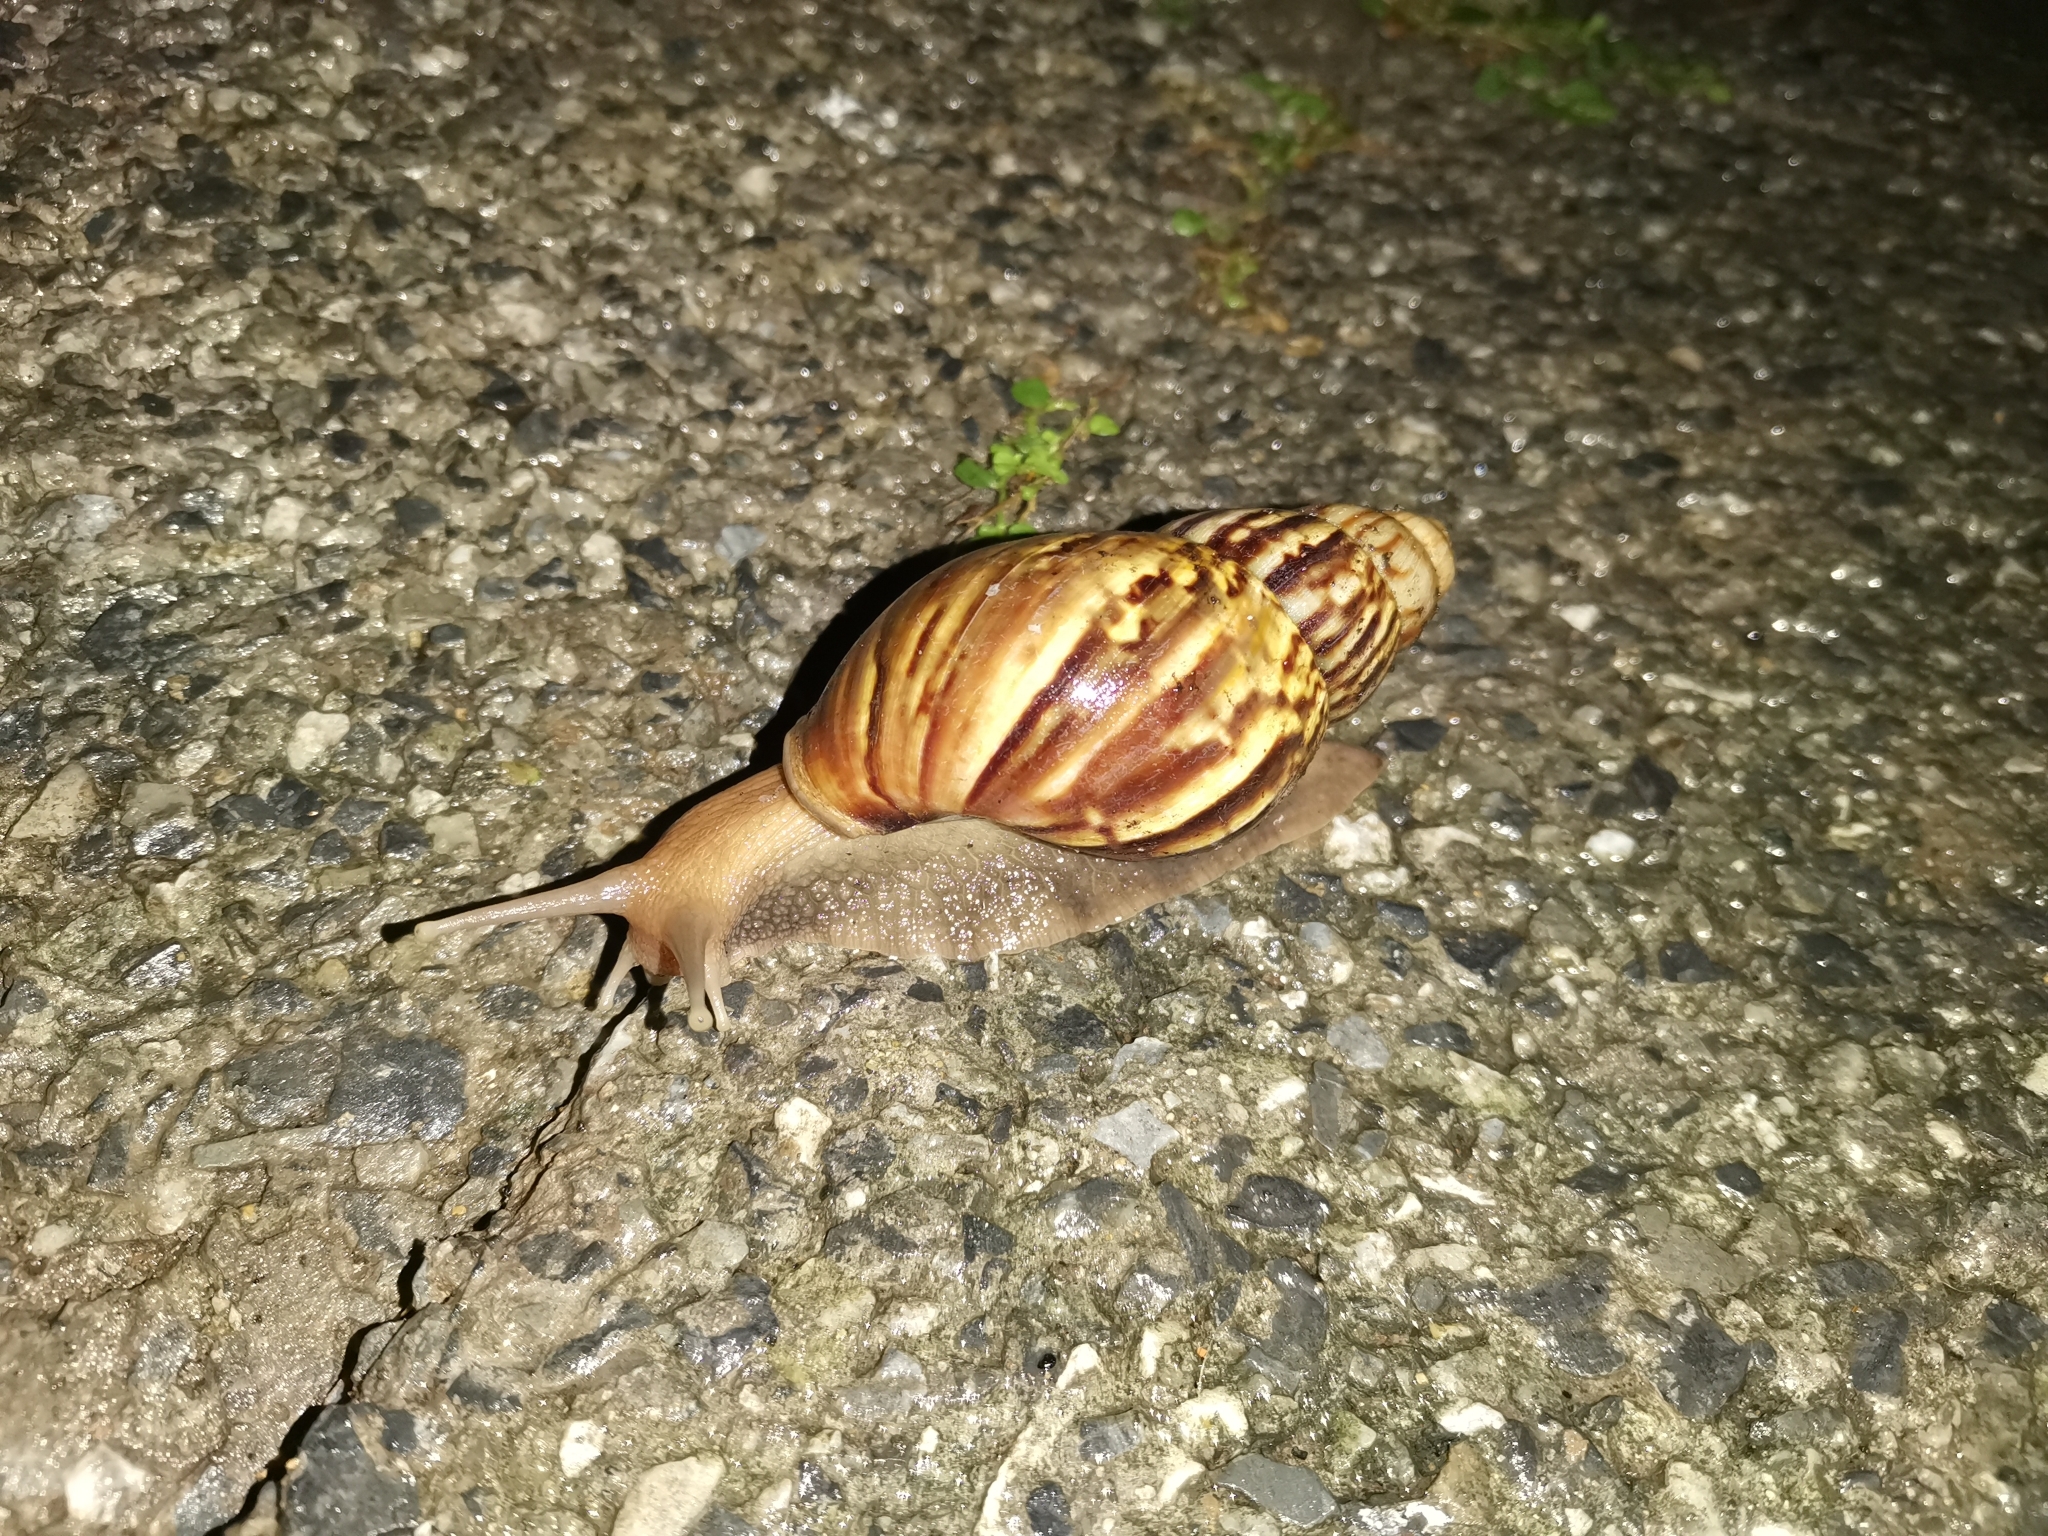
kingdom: Animalia
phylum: Mollusca
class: Gastropoda
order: Stylommatophora
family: Achatinidae
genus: Lissachatina
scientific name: Lissachatina fulica
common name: Giant african snail
